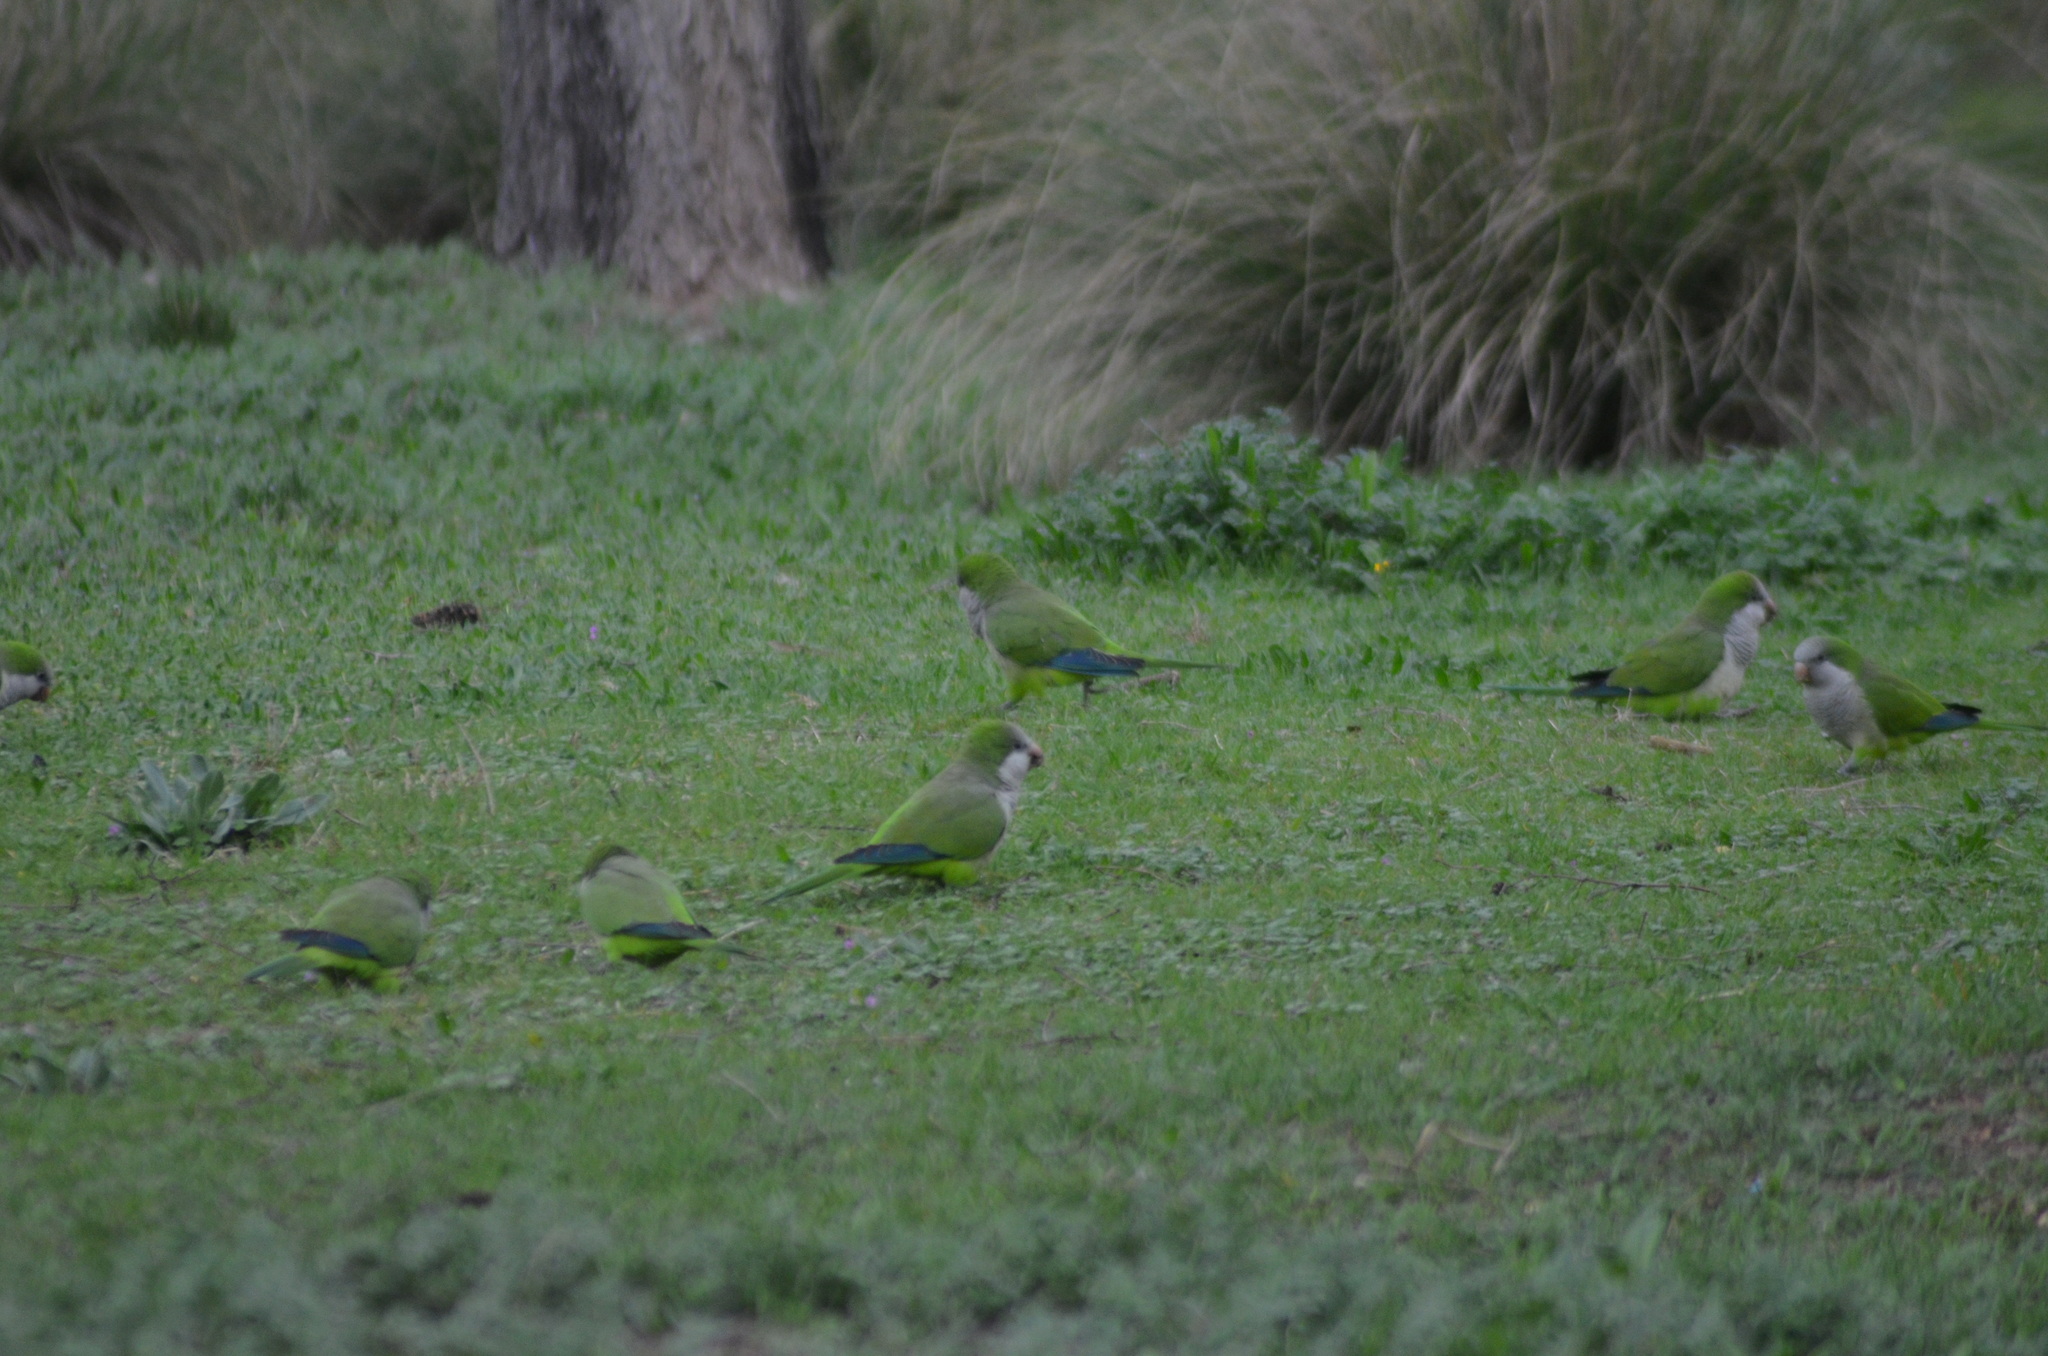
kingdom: Animalia
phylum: Chordata
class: Aves
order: Psittaciformes
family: Psittacidae
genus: Myiopsitta
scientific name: Myiopsitta monachus
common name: Monk parakeet
